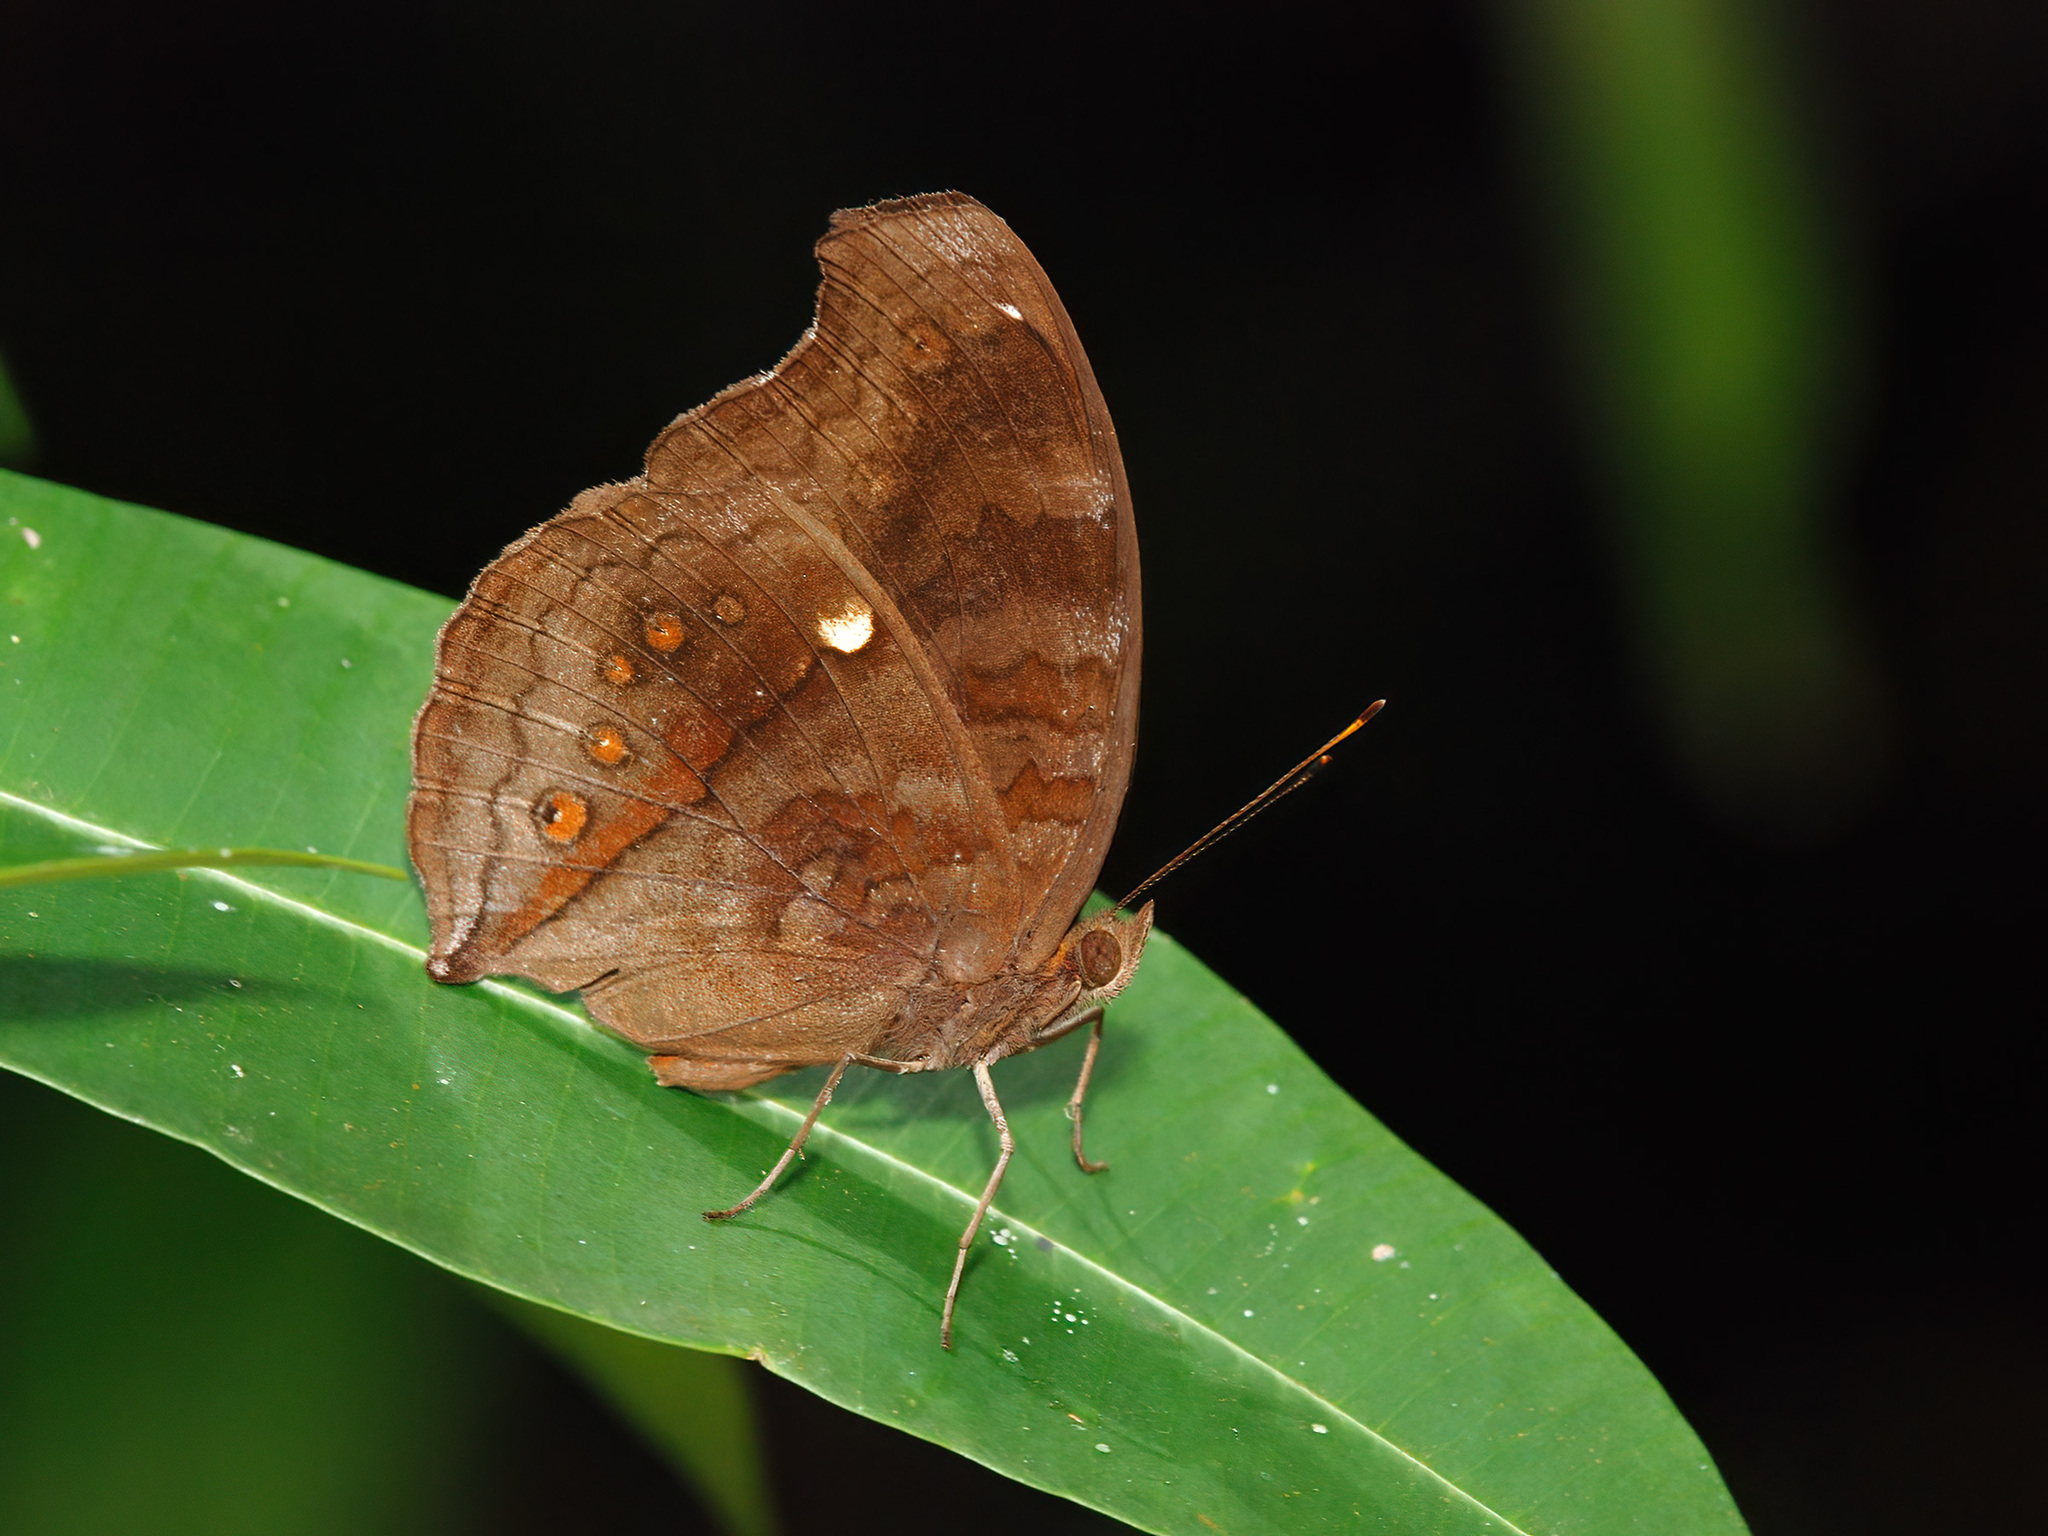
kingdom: Animalia
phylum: Arthropoda
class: Insecta
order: Lepidoptera
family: Nymphalidae
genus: Junonia
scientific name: Junonia hedonia
